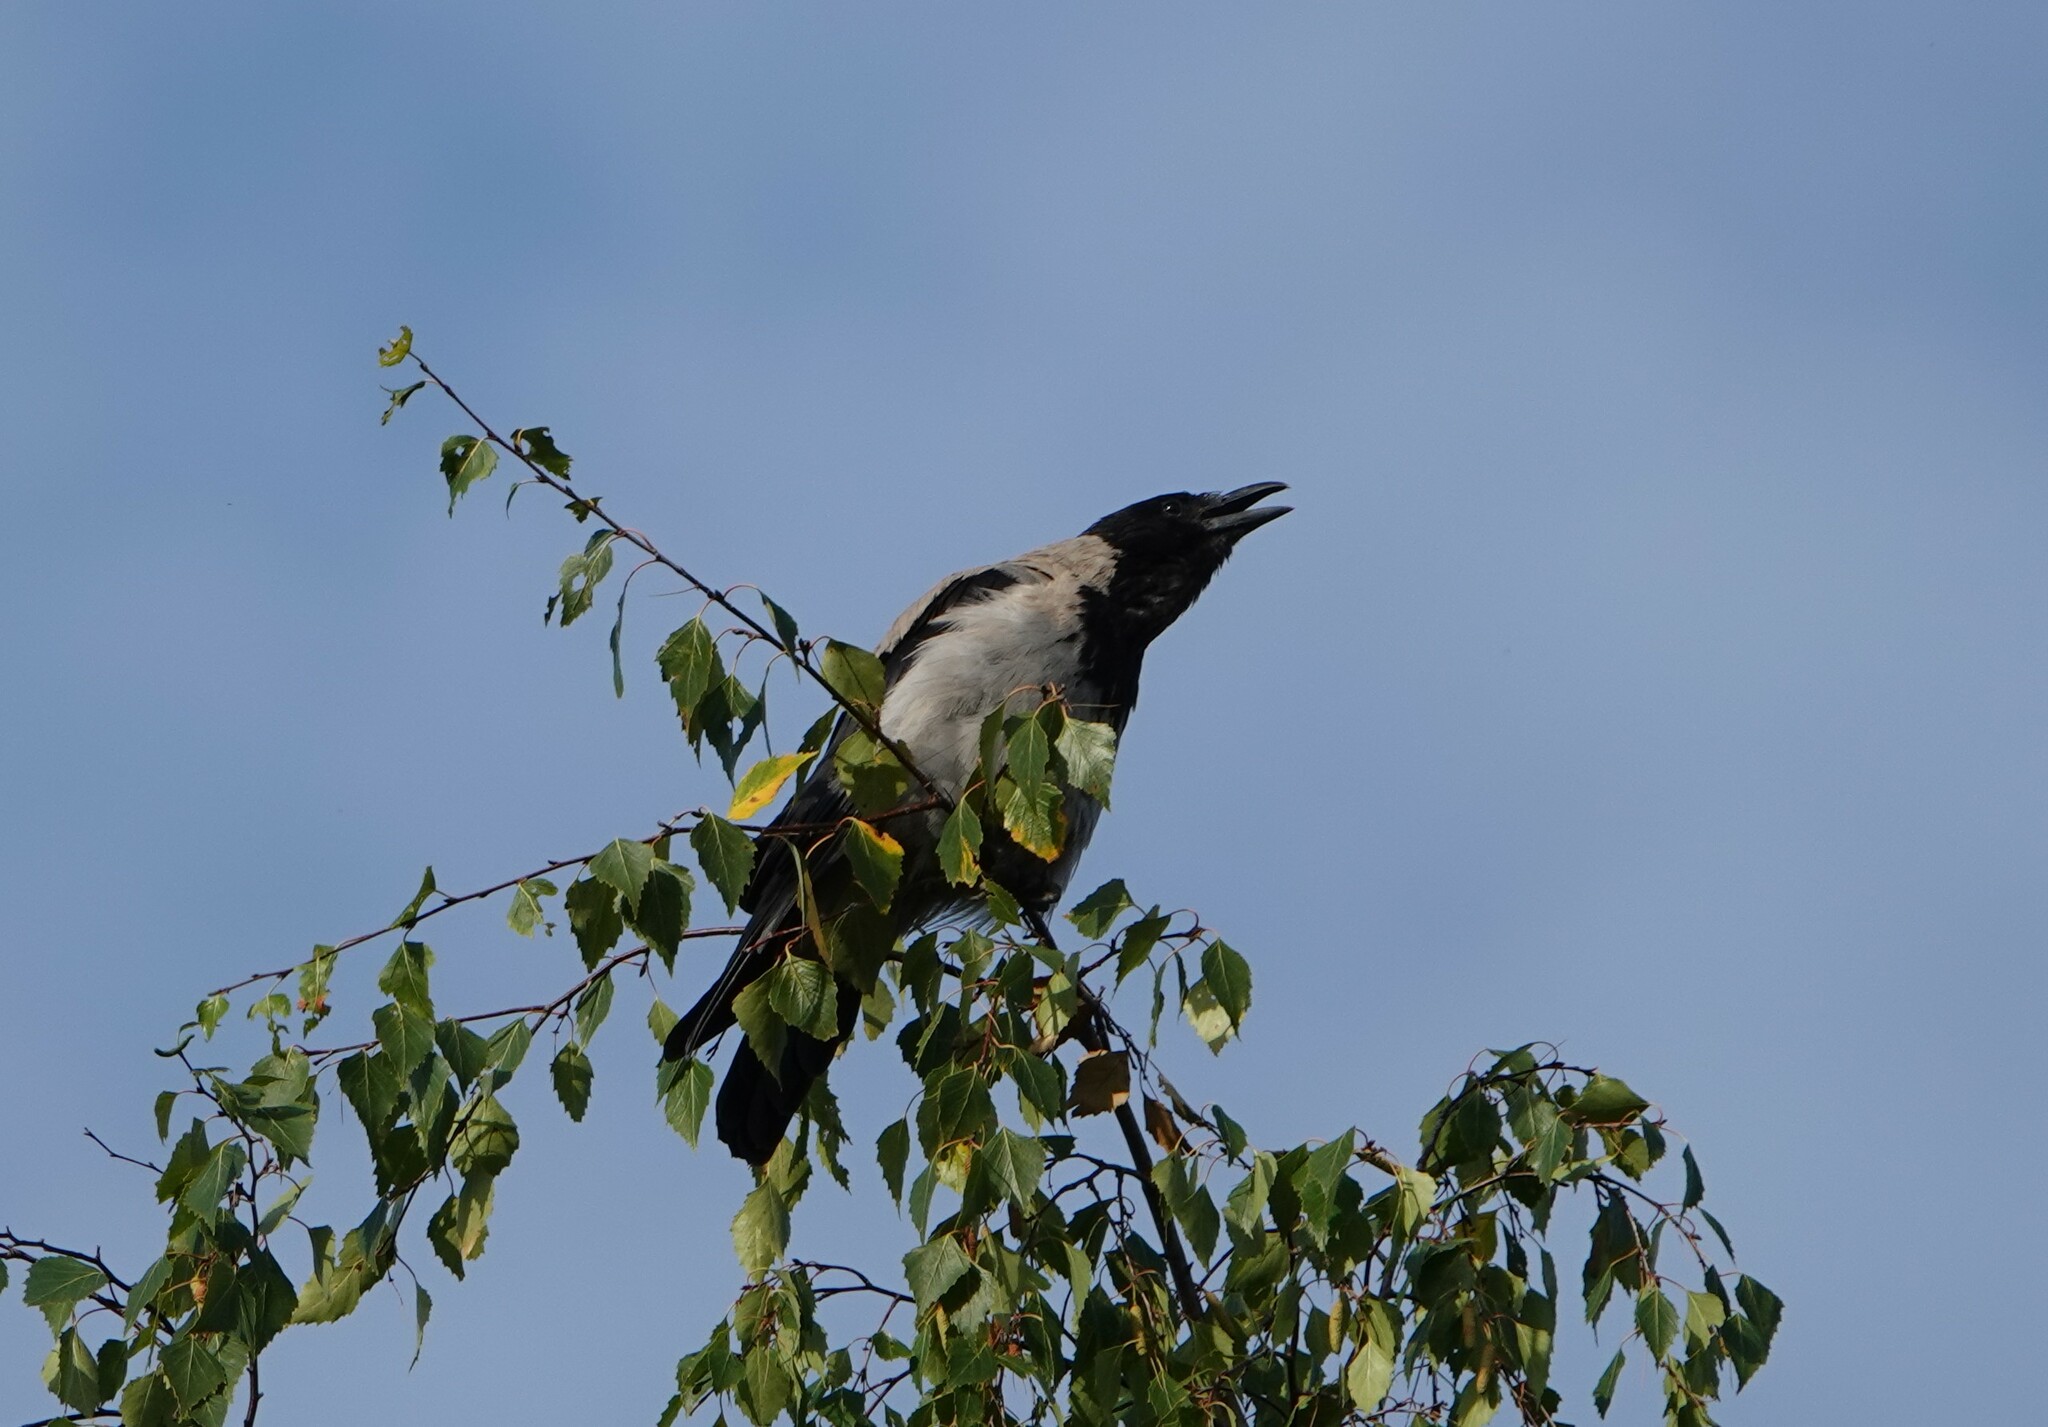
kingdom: Animalia
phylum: Chordata
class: Aves
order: Passeriformes
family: Corvidae
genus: Corvus
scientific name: Corvus cornix
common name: Hooded crow
